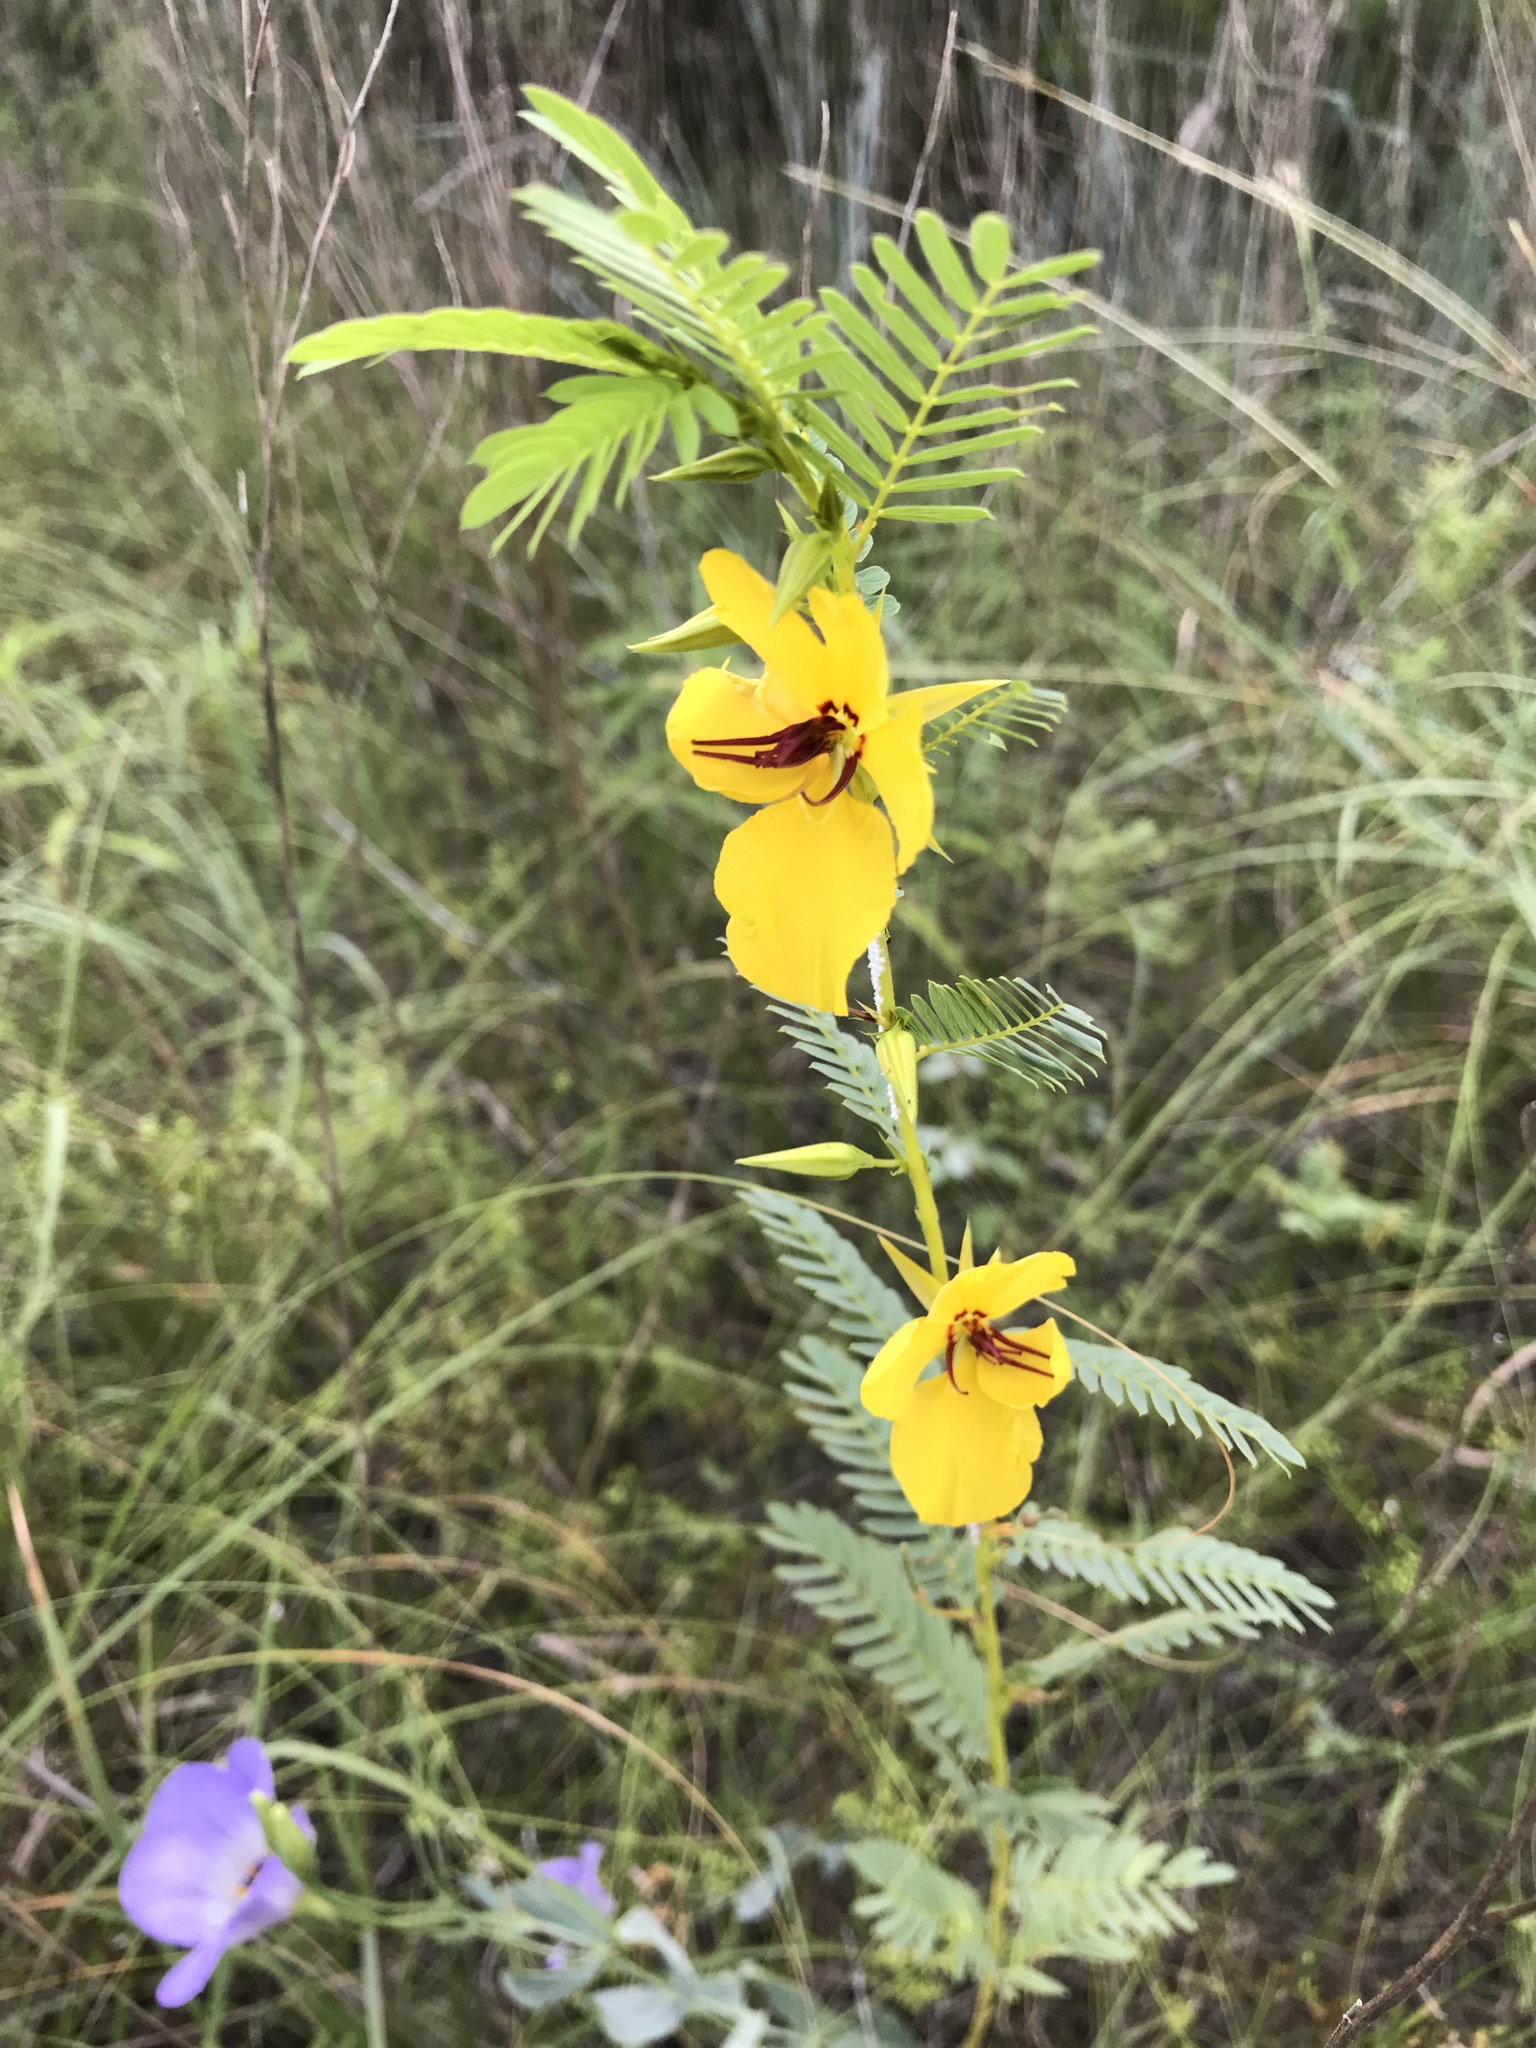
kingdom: Plantae
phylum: Tracheophyta
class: Magnoliopsida
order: Fabales
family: Fabaceae
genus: Chamaecrista
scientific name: Chamaecrista fasciculata
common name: Golden cassia
